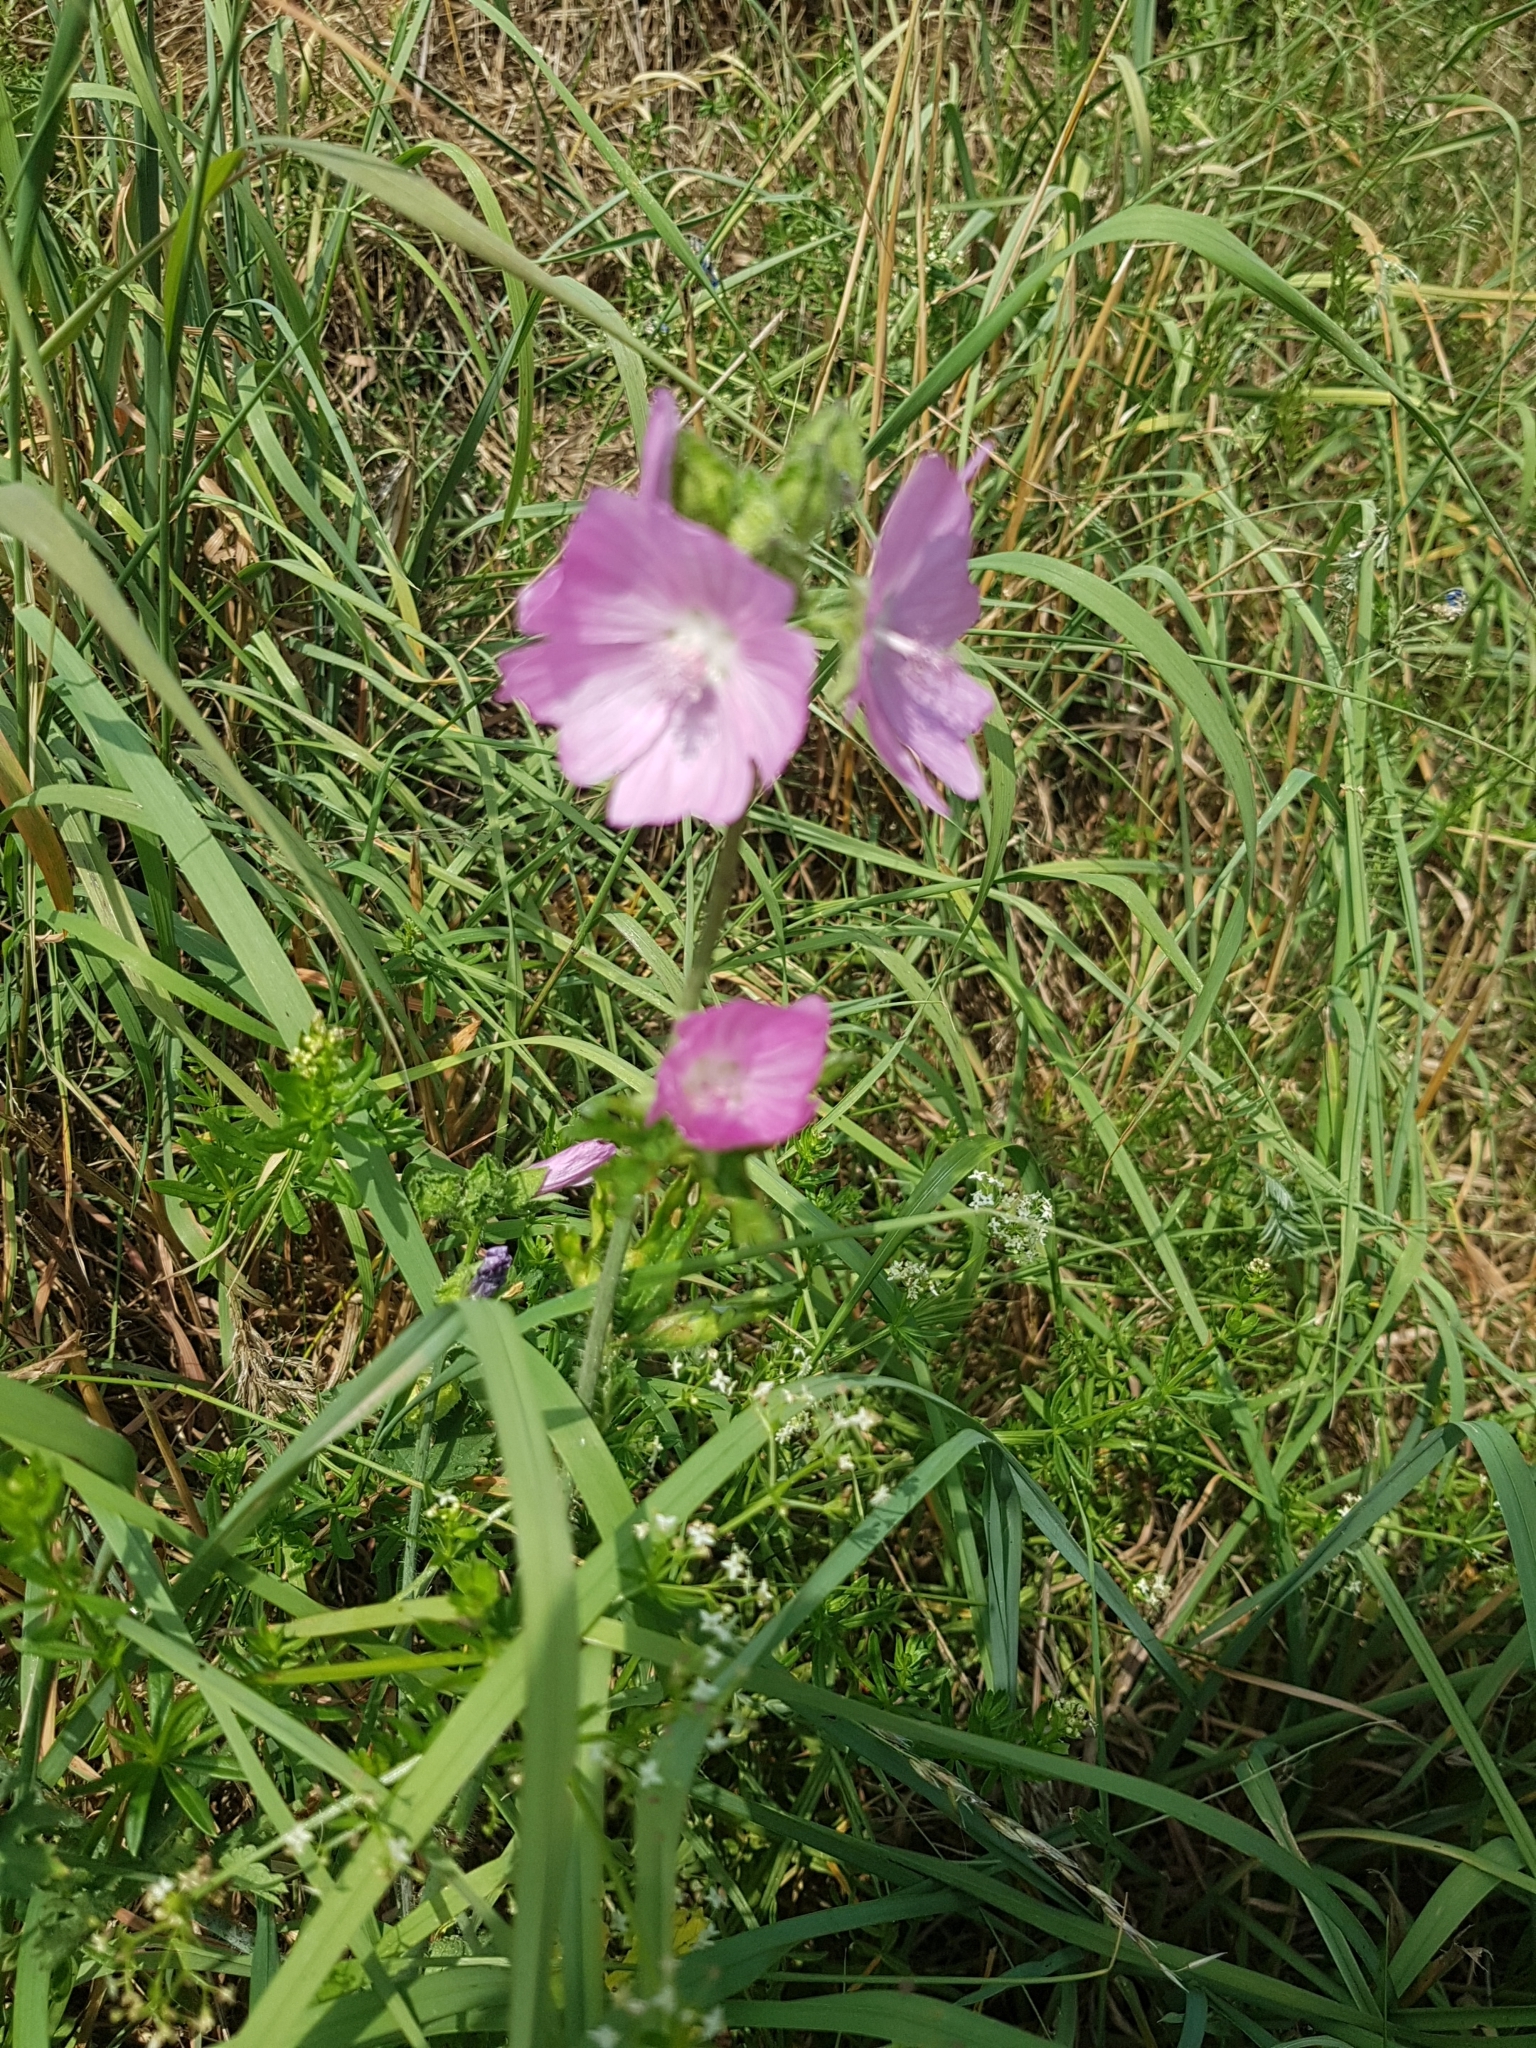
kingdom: Plantae
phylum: Tracheophyta
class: Magnoliopsida
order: Malvales
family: Malvaceae
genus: Malva
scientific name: Malva moschata
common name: Musk mallow
